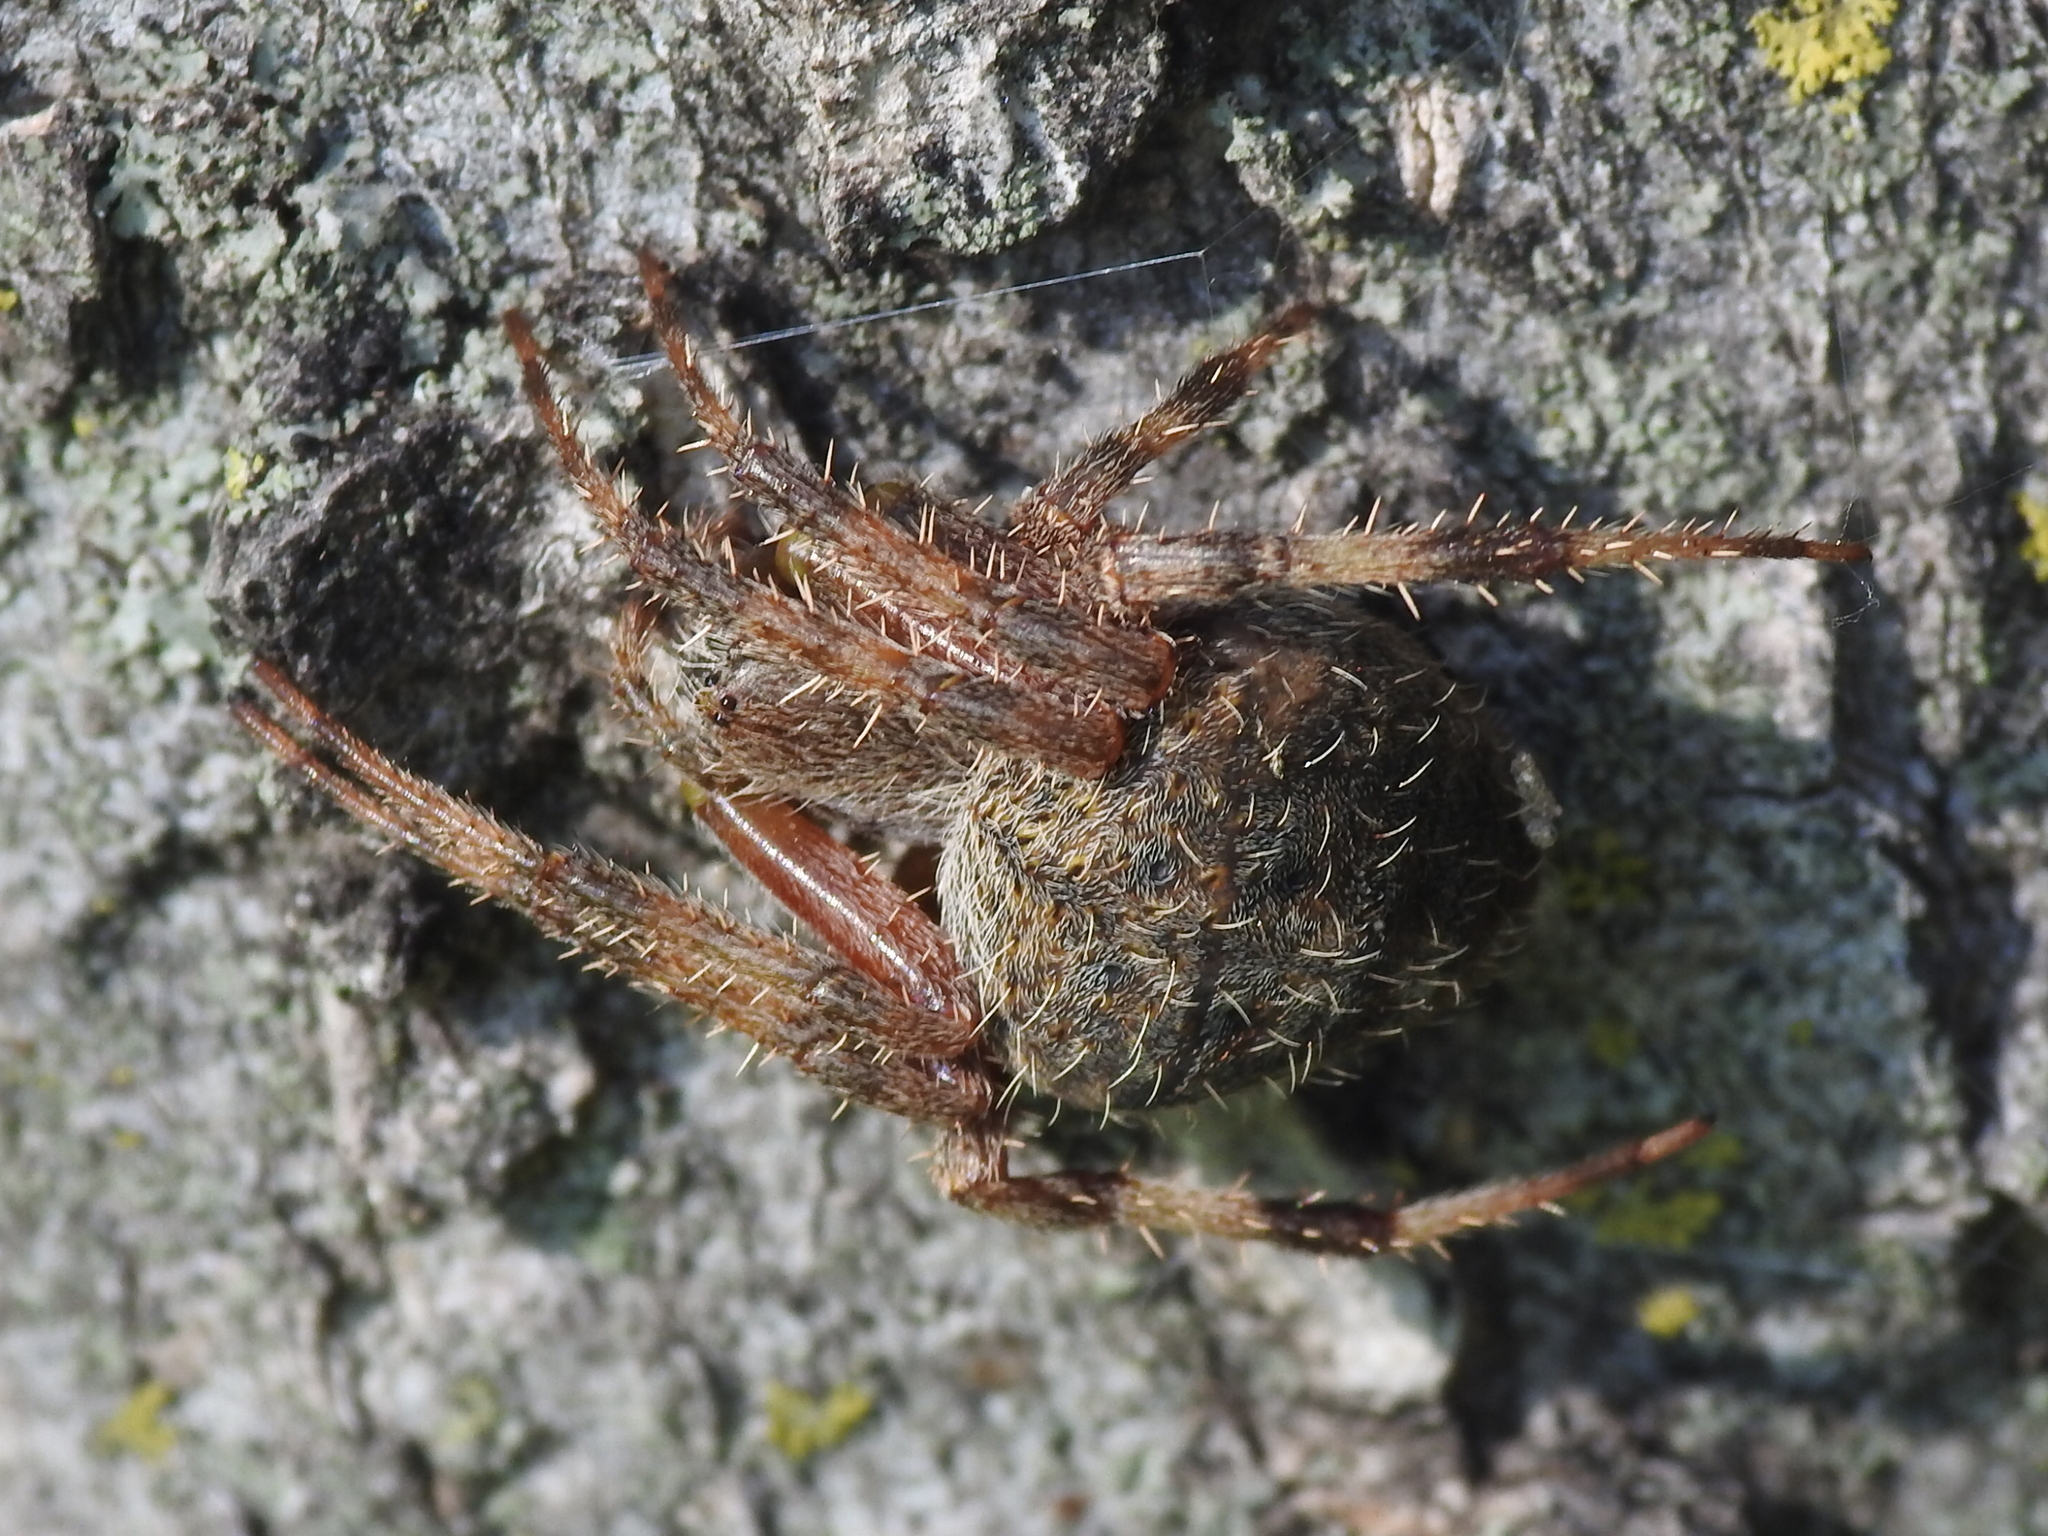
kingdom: Animalia
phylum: Arthropoda
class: Arachnida
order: Araneae
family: Araneidae
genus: Neoscona
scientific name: Neoscona crucifera
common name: Spotted orbweaver
